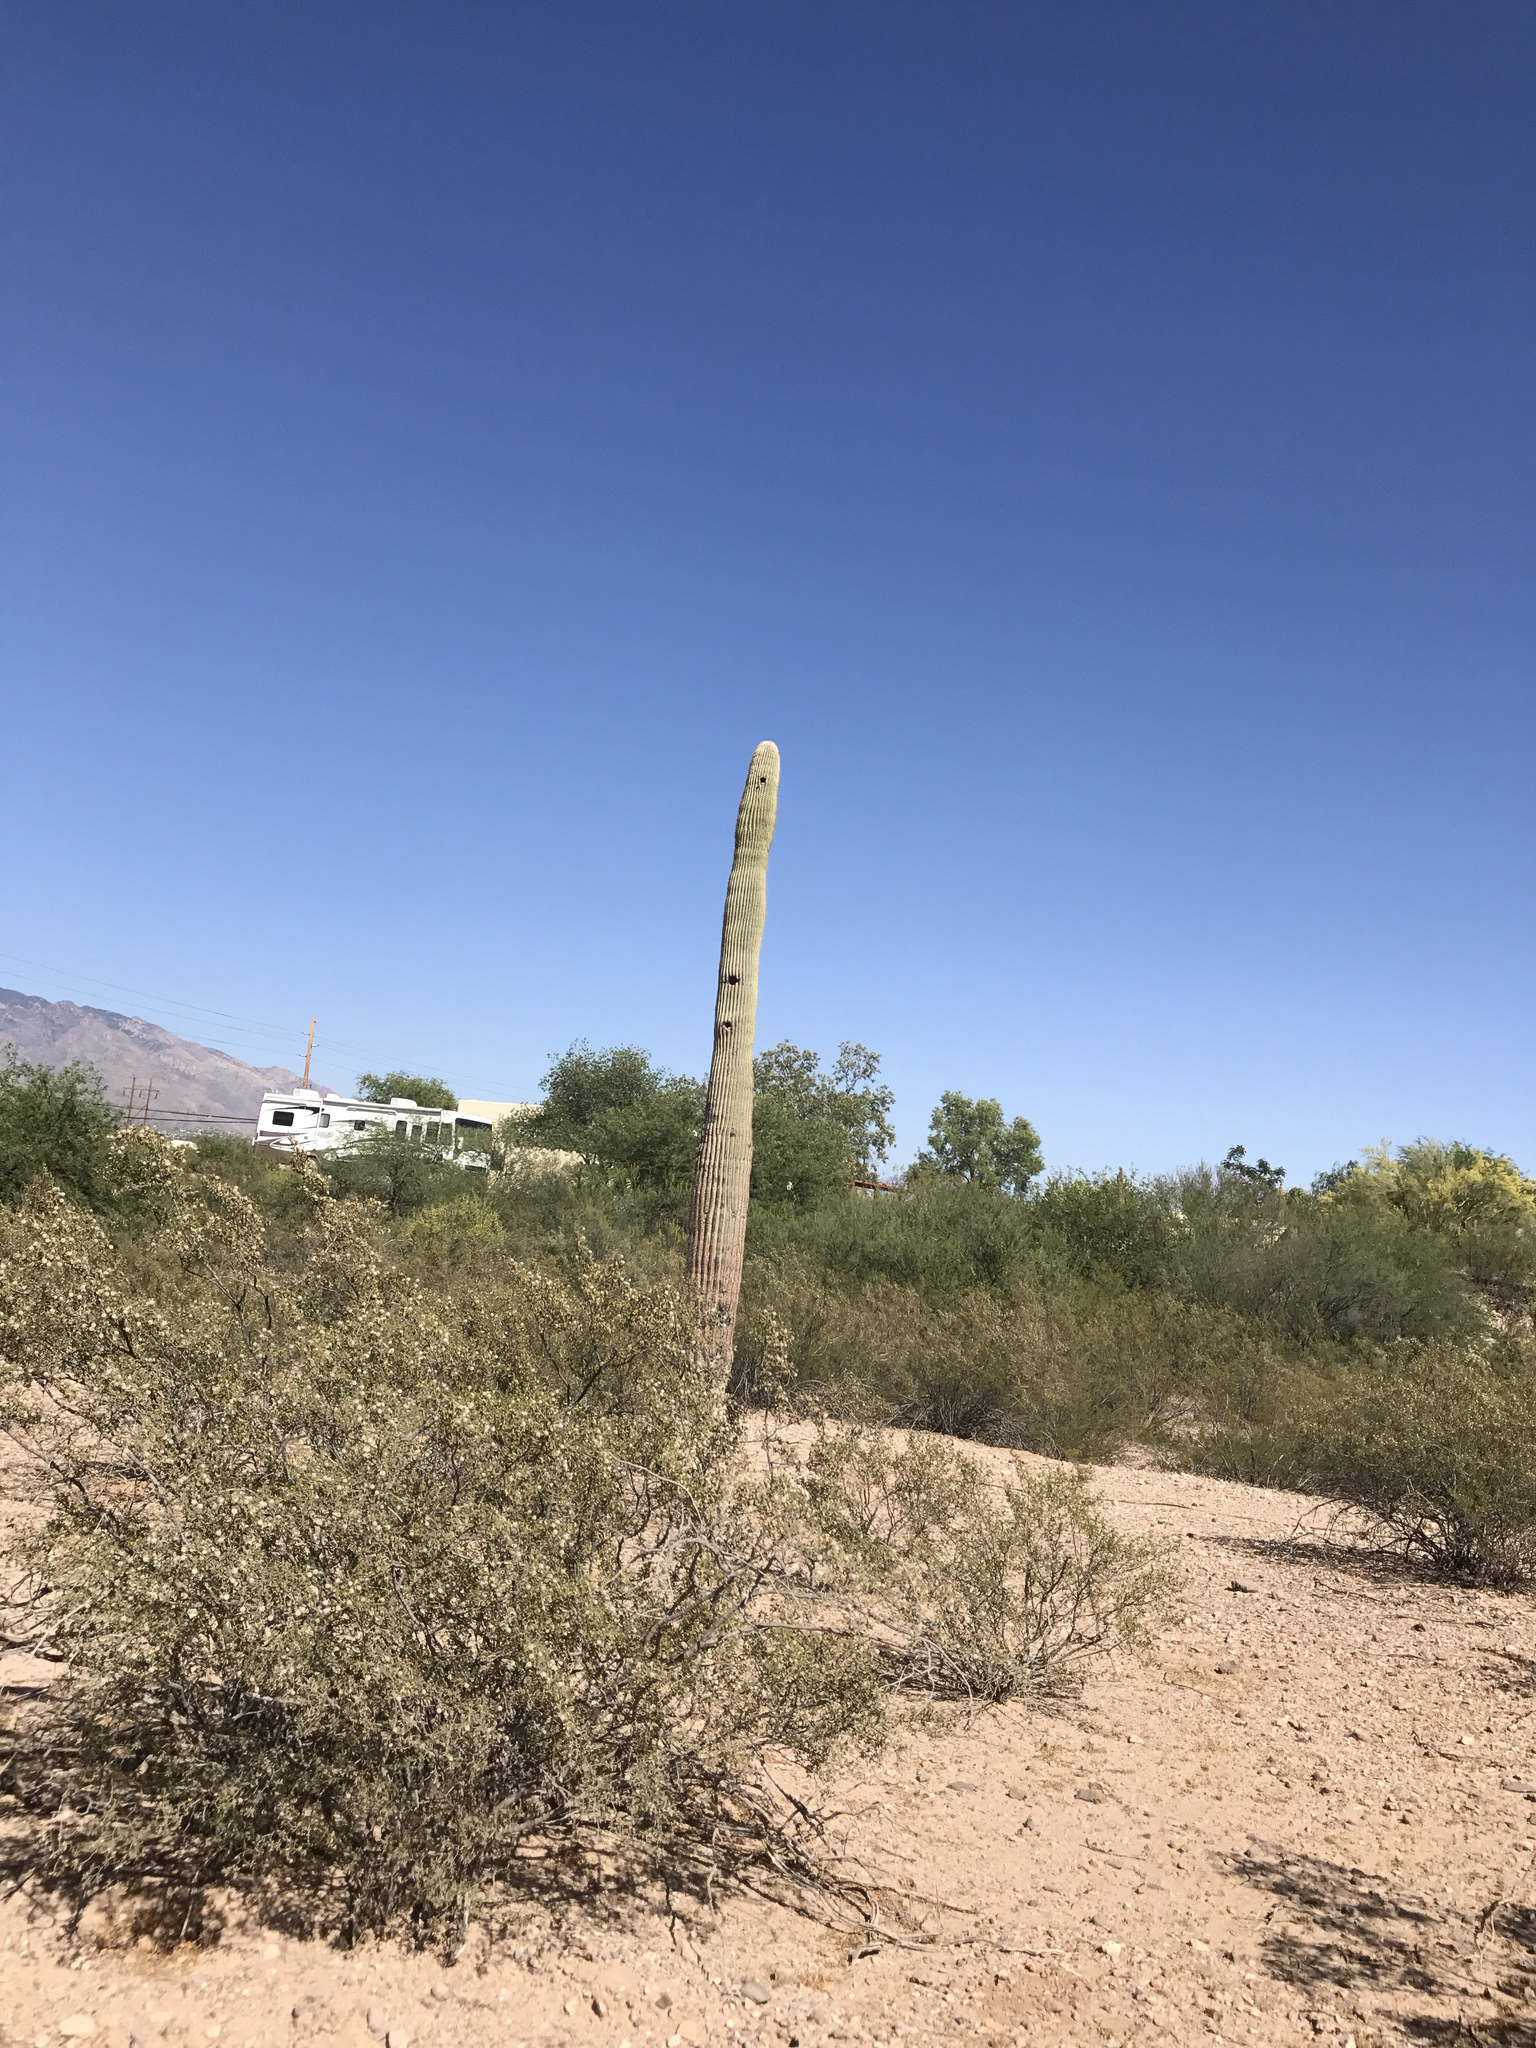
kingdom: Plantae
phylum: Tracheophyta
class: Magnoliopsida
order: Zygophyllales
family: Zygophyllaceae
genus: Larrea
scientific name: Larrea tridentata
